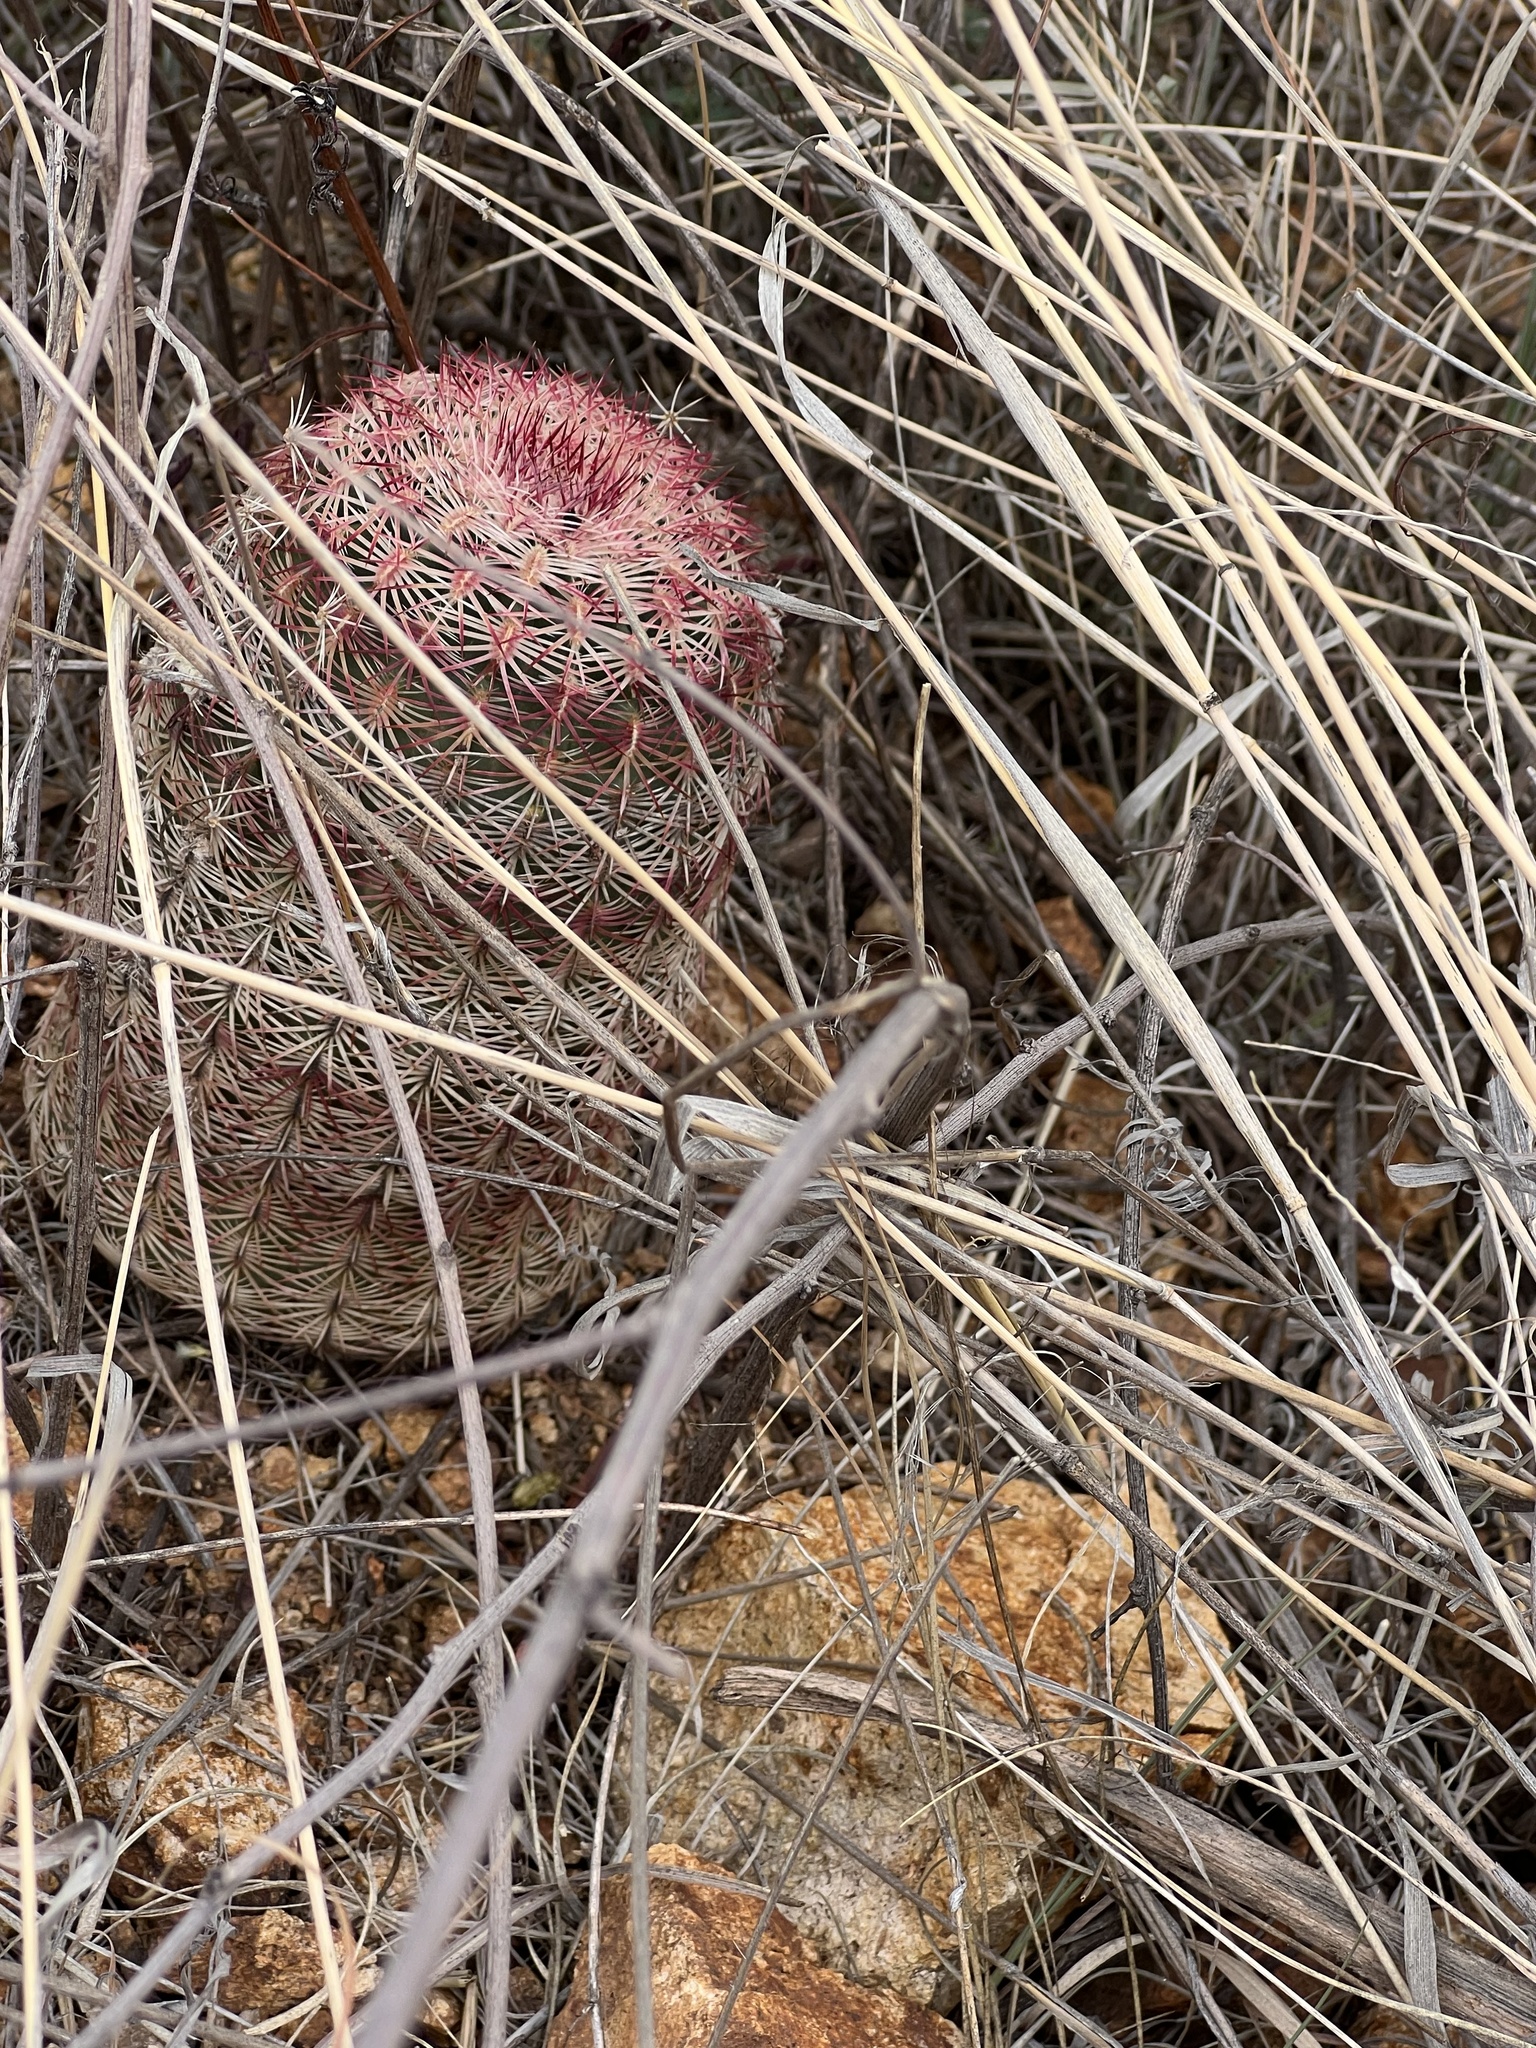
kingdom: Plantae
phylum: Tracheophyta
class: Magnoliopsida
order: Caryophyllales
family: Cactaceae
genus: Echinocereus
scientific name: Echinocereus rigidissimus
